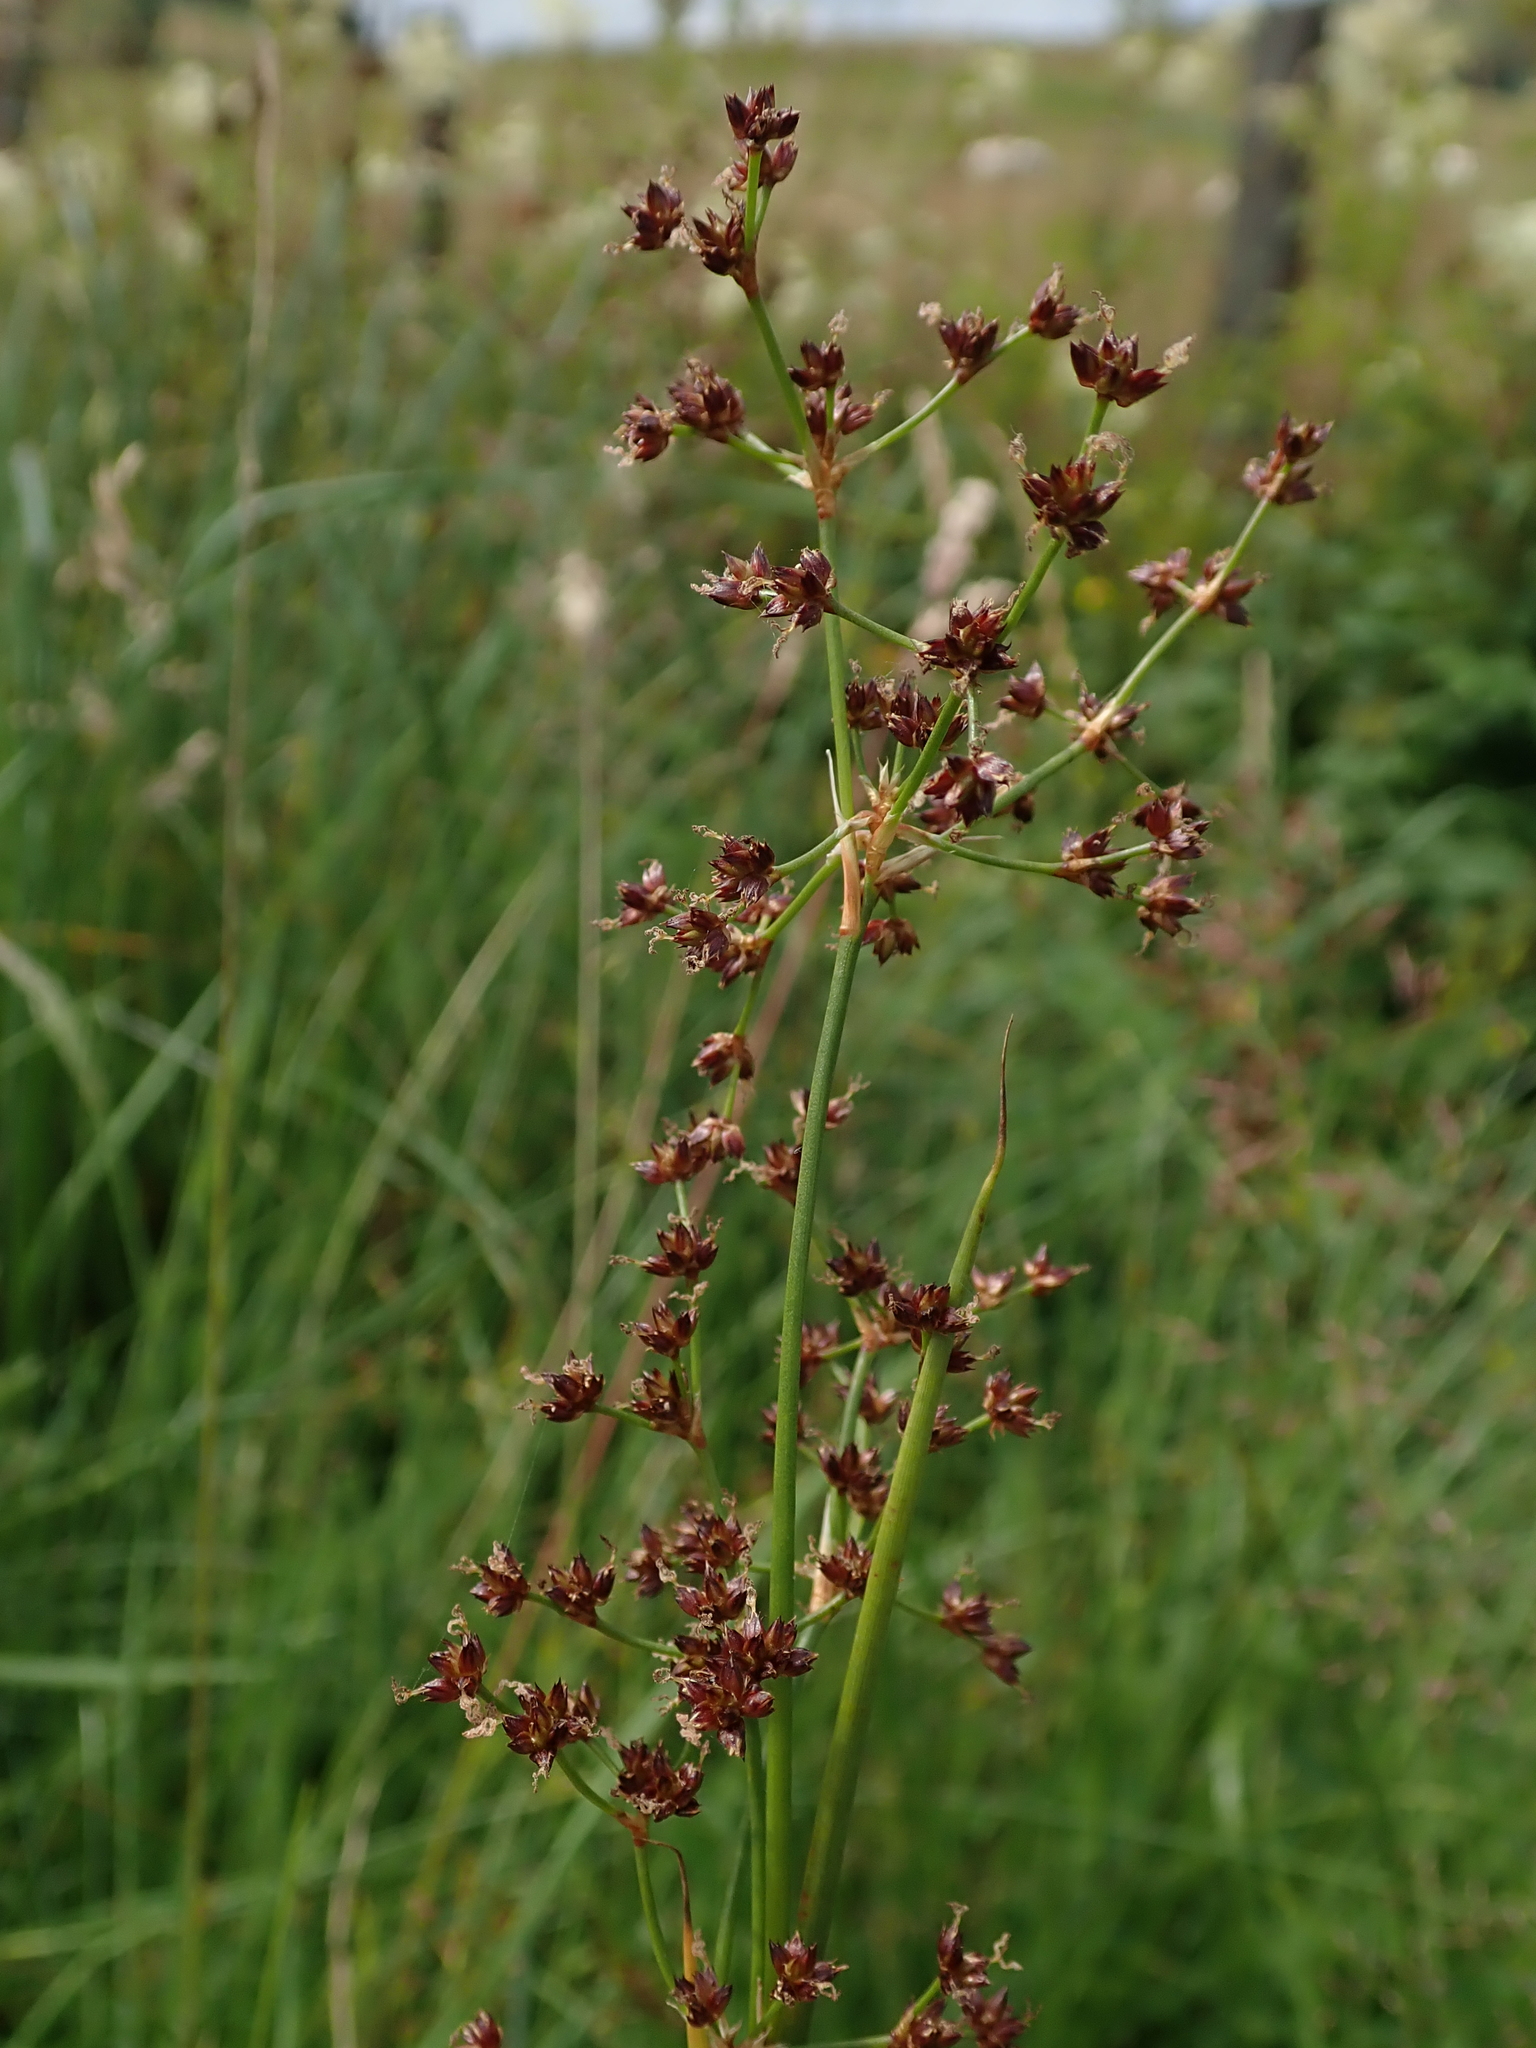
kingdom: Plantae
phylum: Tracheophyta
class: Liliopsida
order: Poales
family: Juncaceae
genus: Juncus
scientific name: Juncus articulatus
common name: Jointed rush
